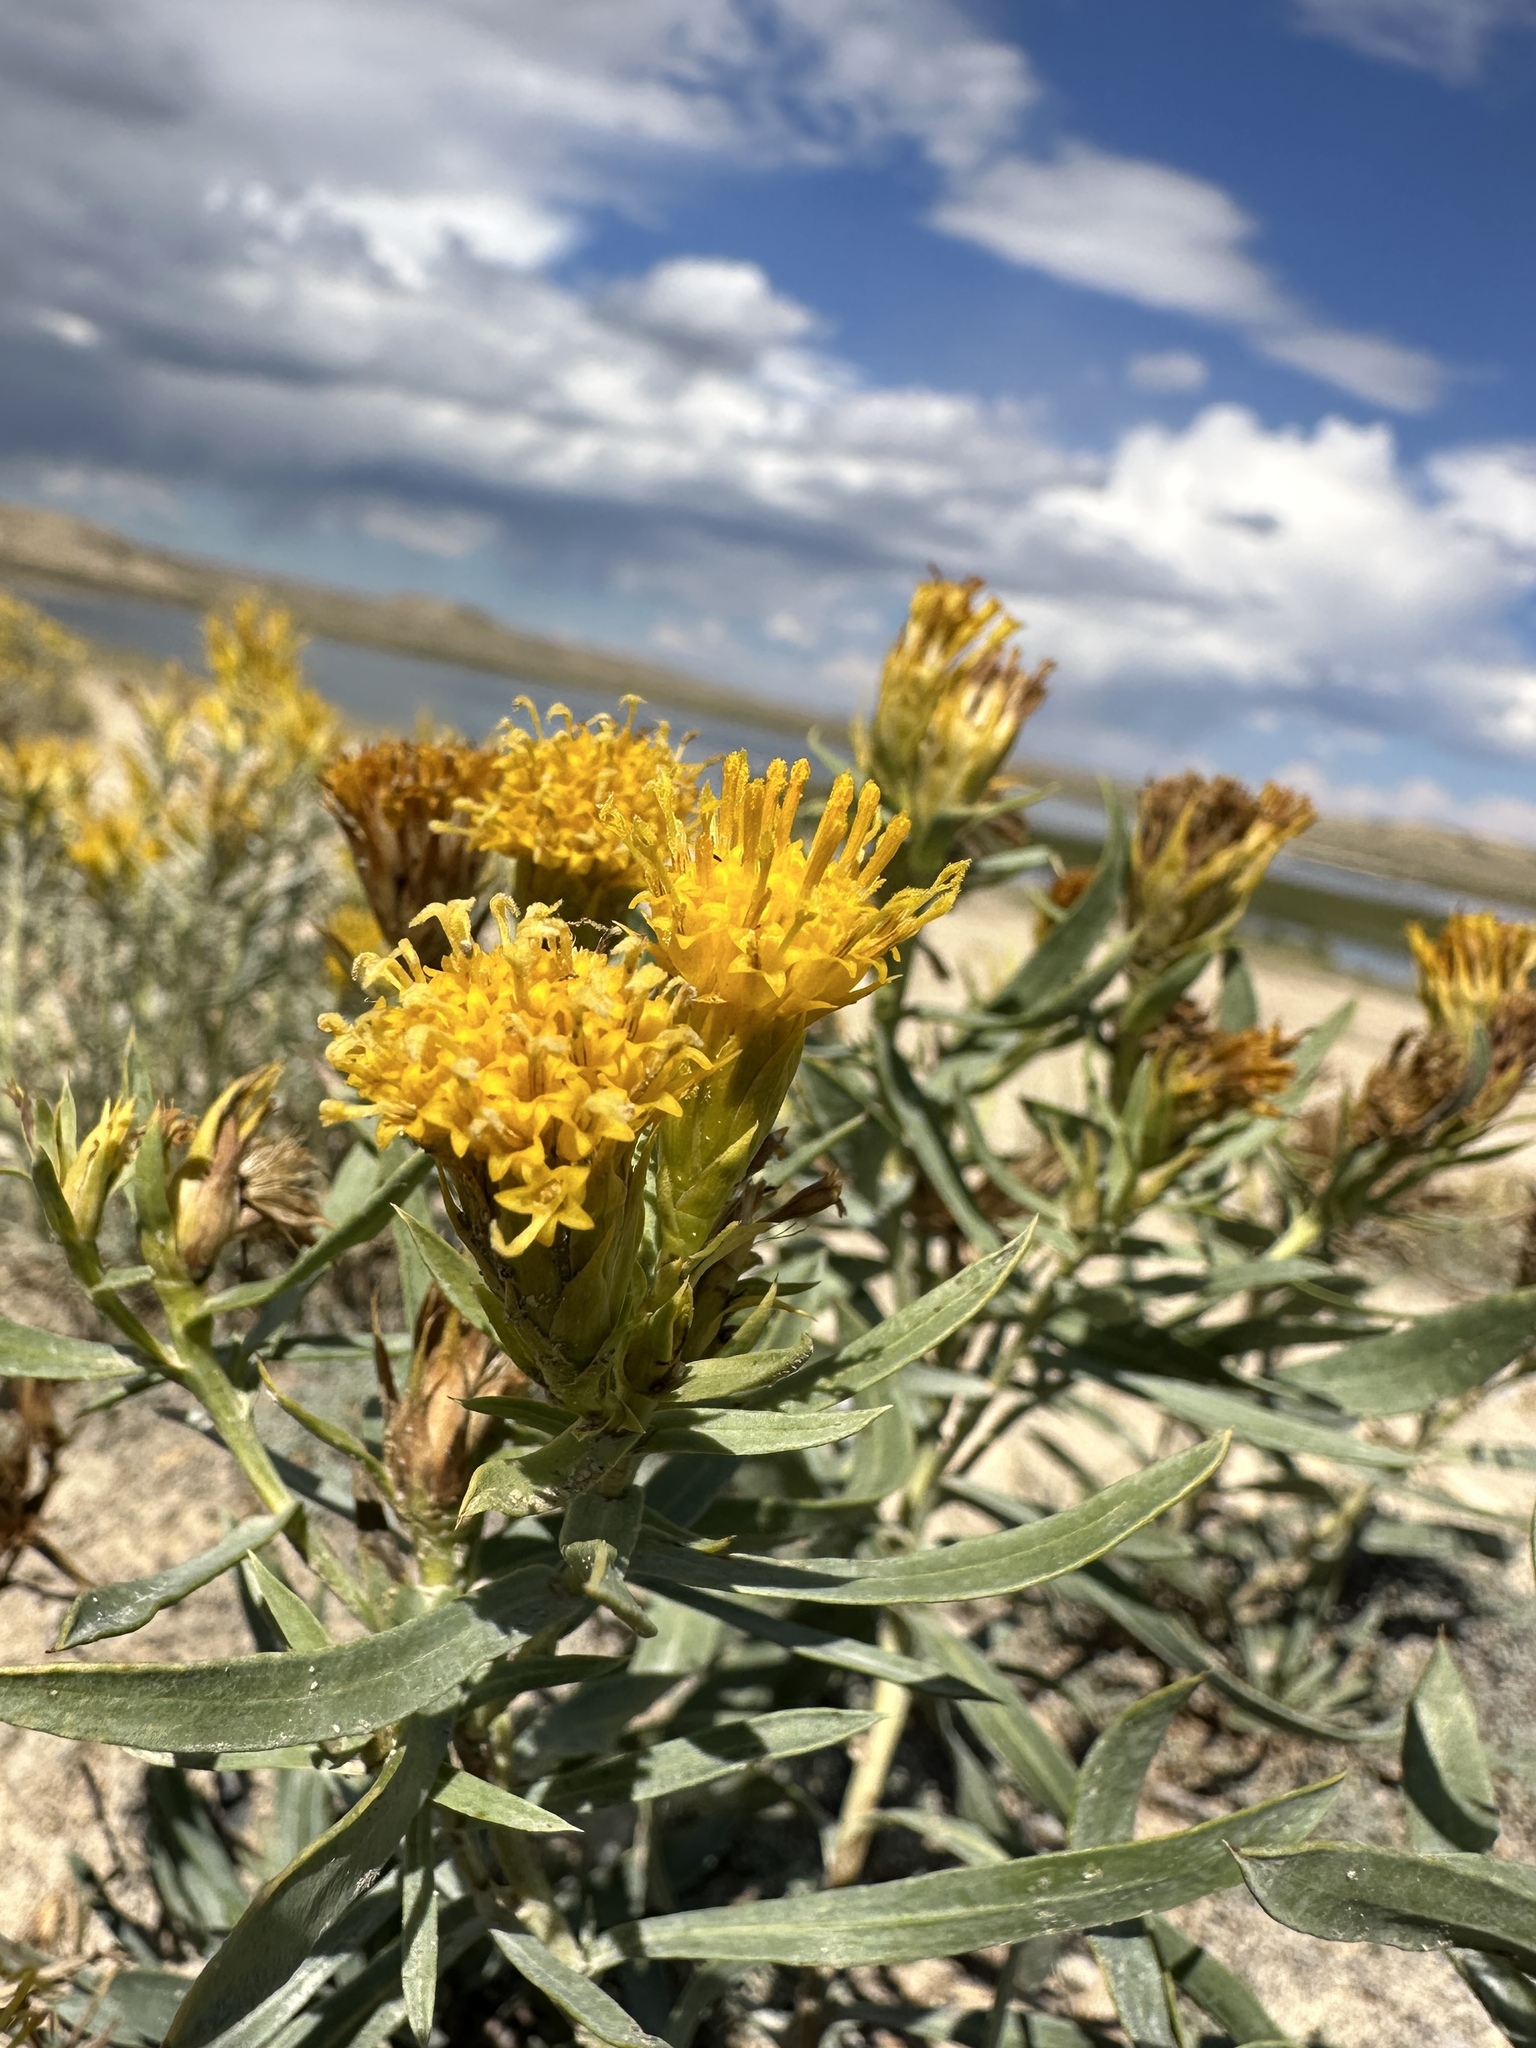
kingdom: Plantae
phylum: Tracheophyta
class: Magnoliopsida
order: Asterales
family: Asteraceae
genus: Oonopsis
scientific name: Oonopsis wardii
